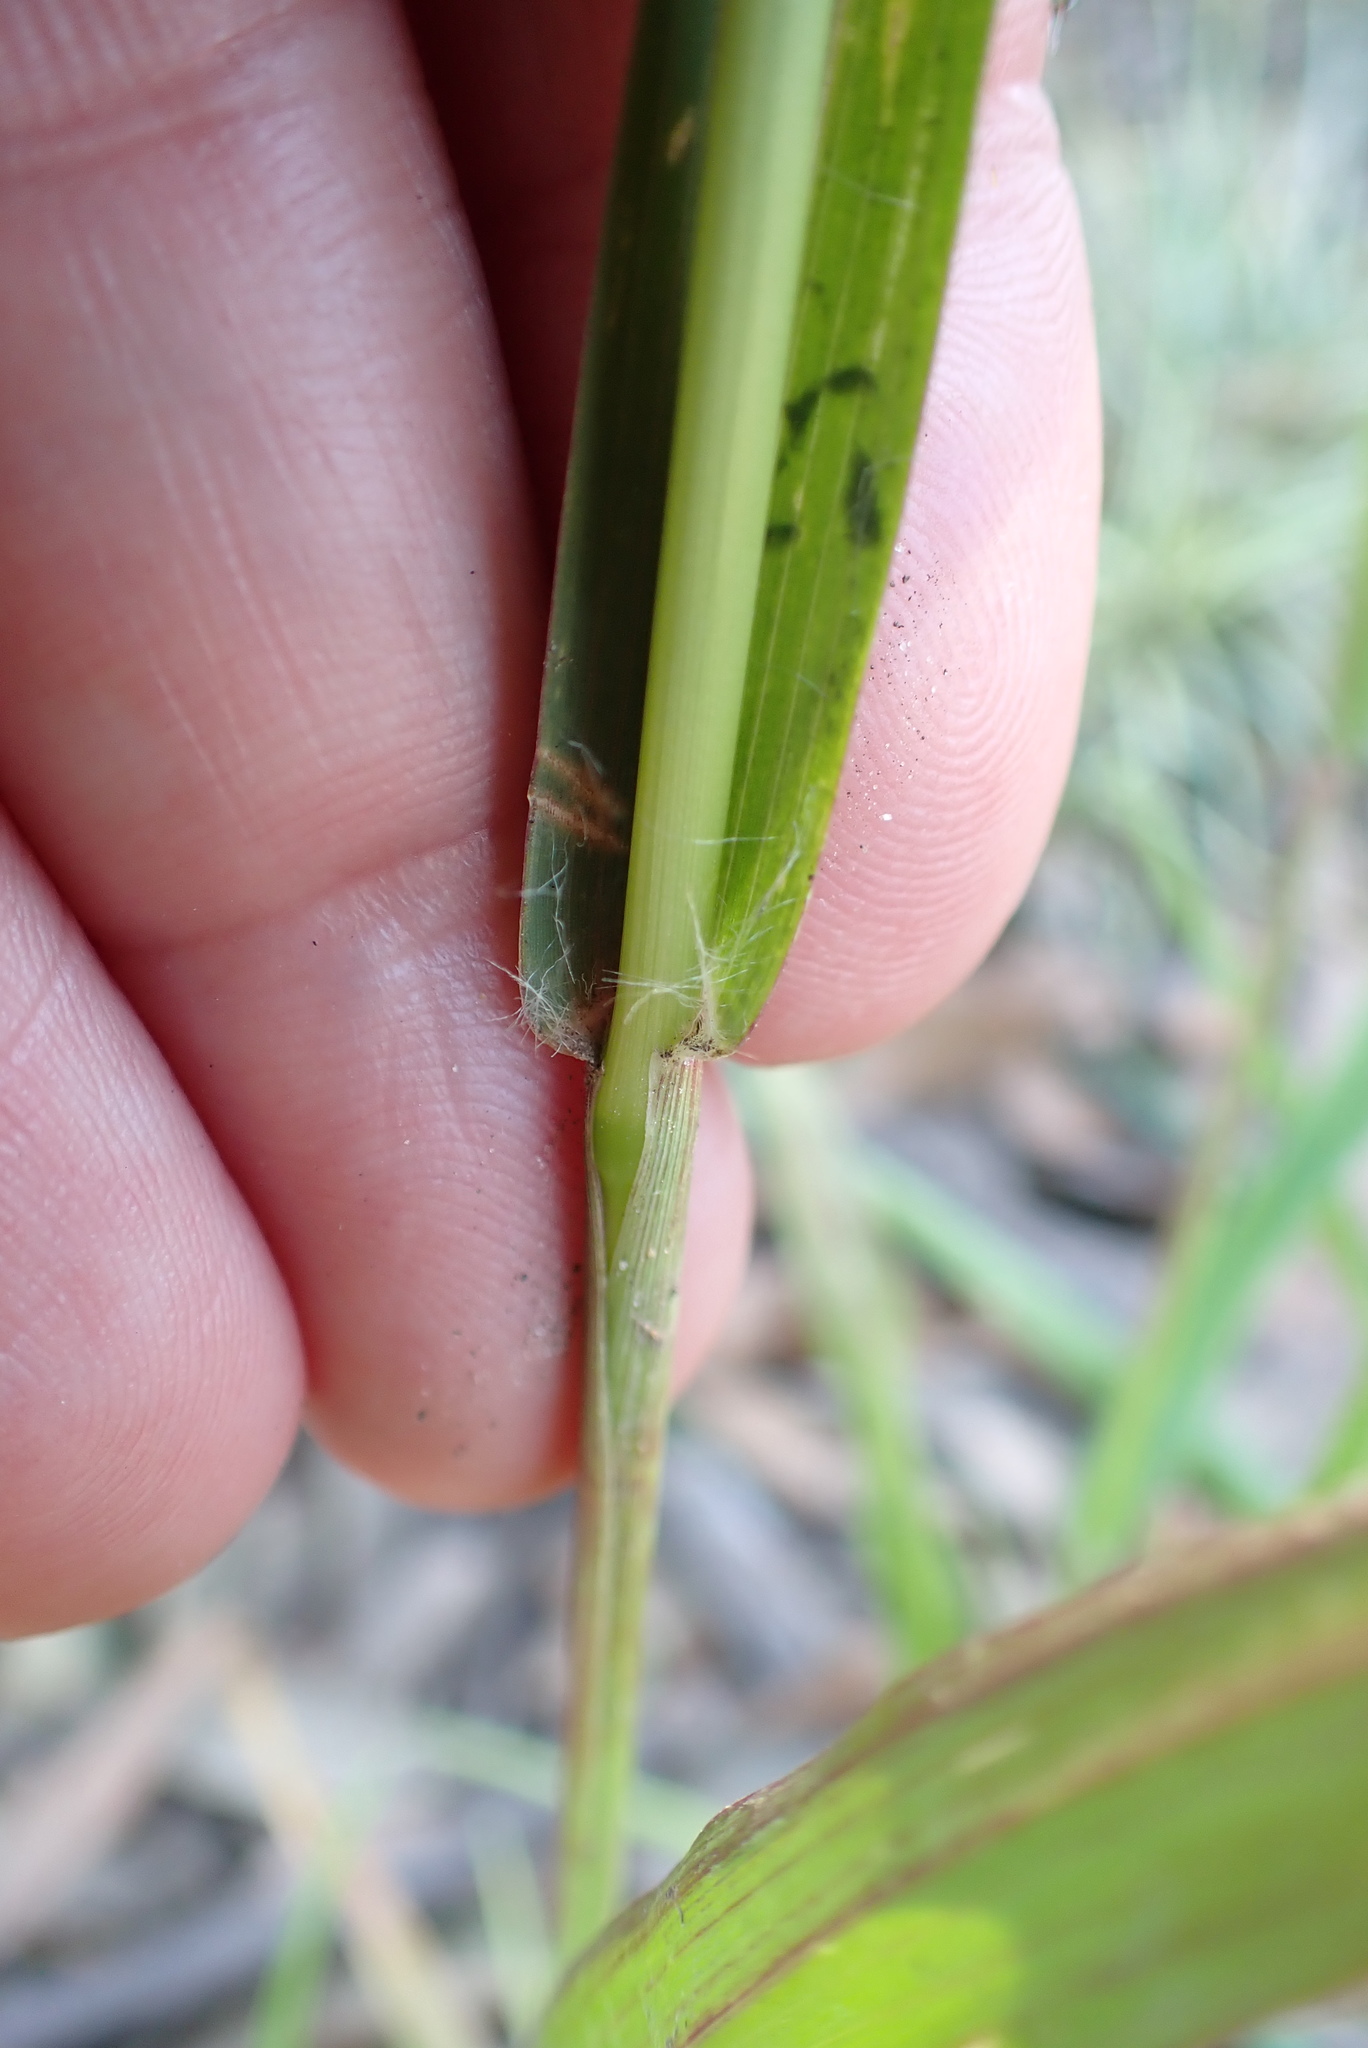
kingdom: Plantae
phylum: Tracheophyta
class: Liliopsida
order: Poales
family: Poaceae
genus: Setaria
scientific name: Setaria pumila
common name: Yellow bristle-grass
